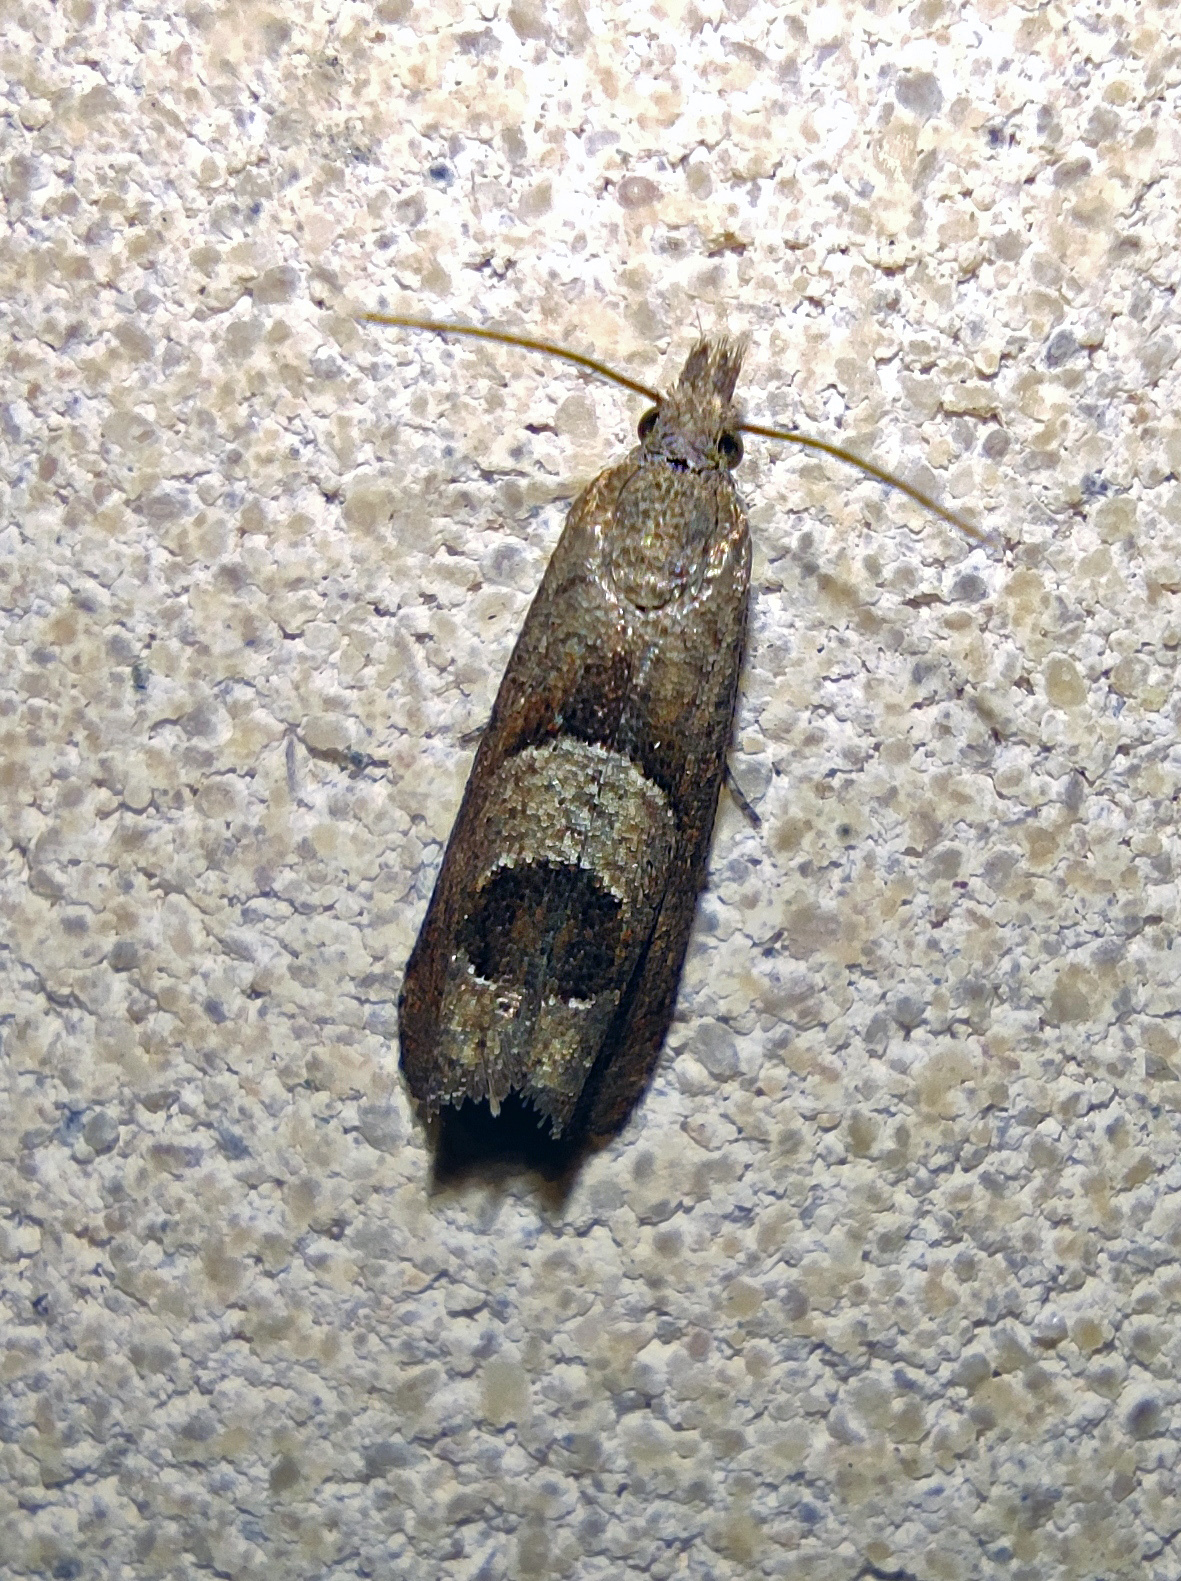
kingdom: Animalia
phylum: Arthropoda
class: Insecta
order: Lepidoptera
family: Tortricidae
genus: Epiblema
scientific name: Epiblema junctana
